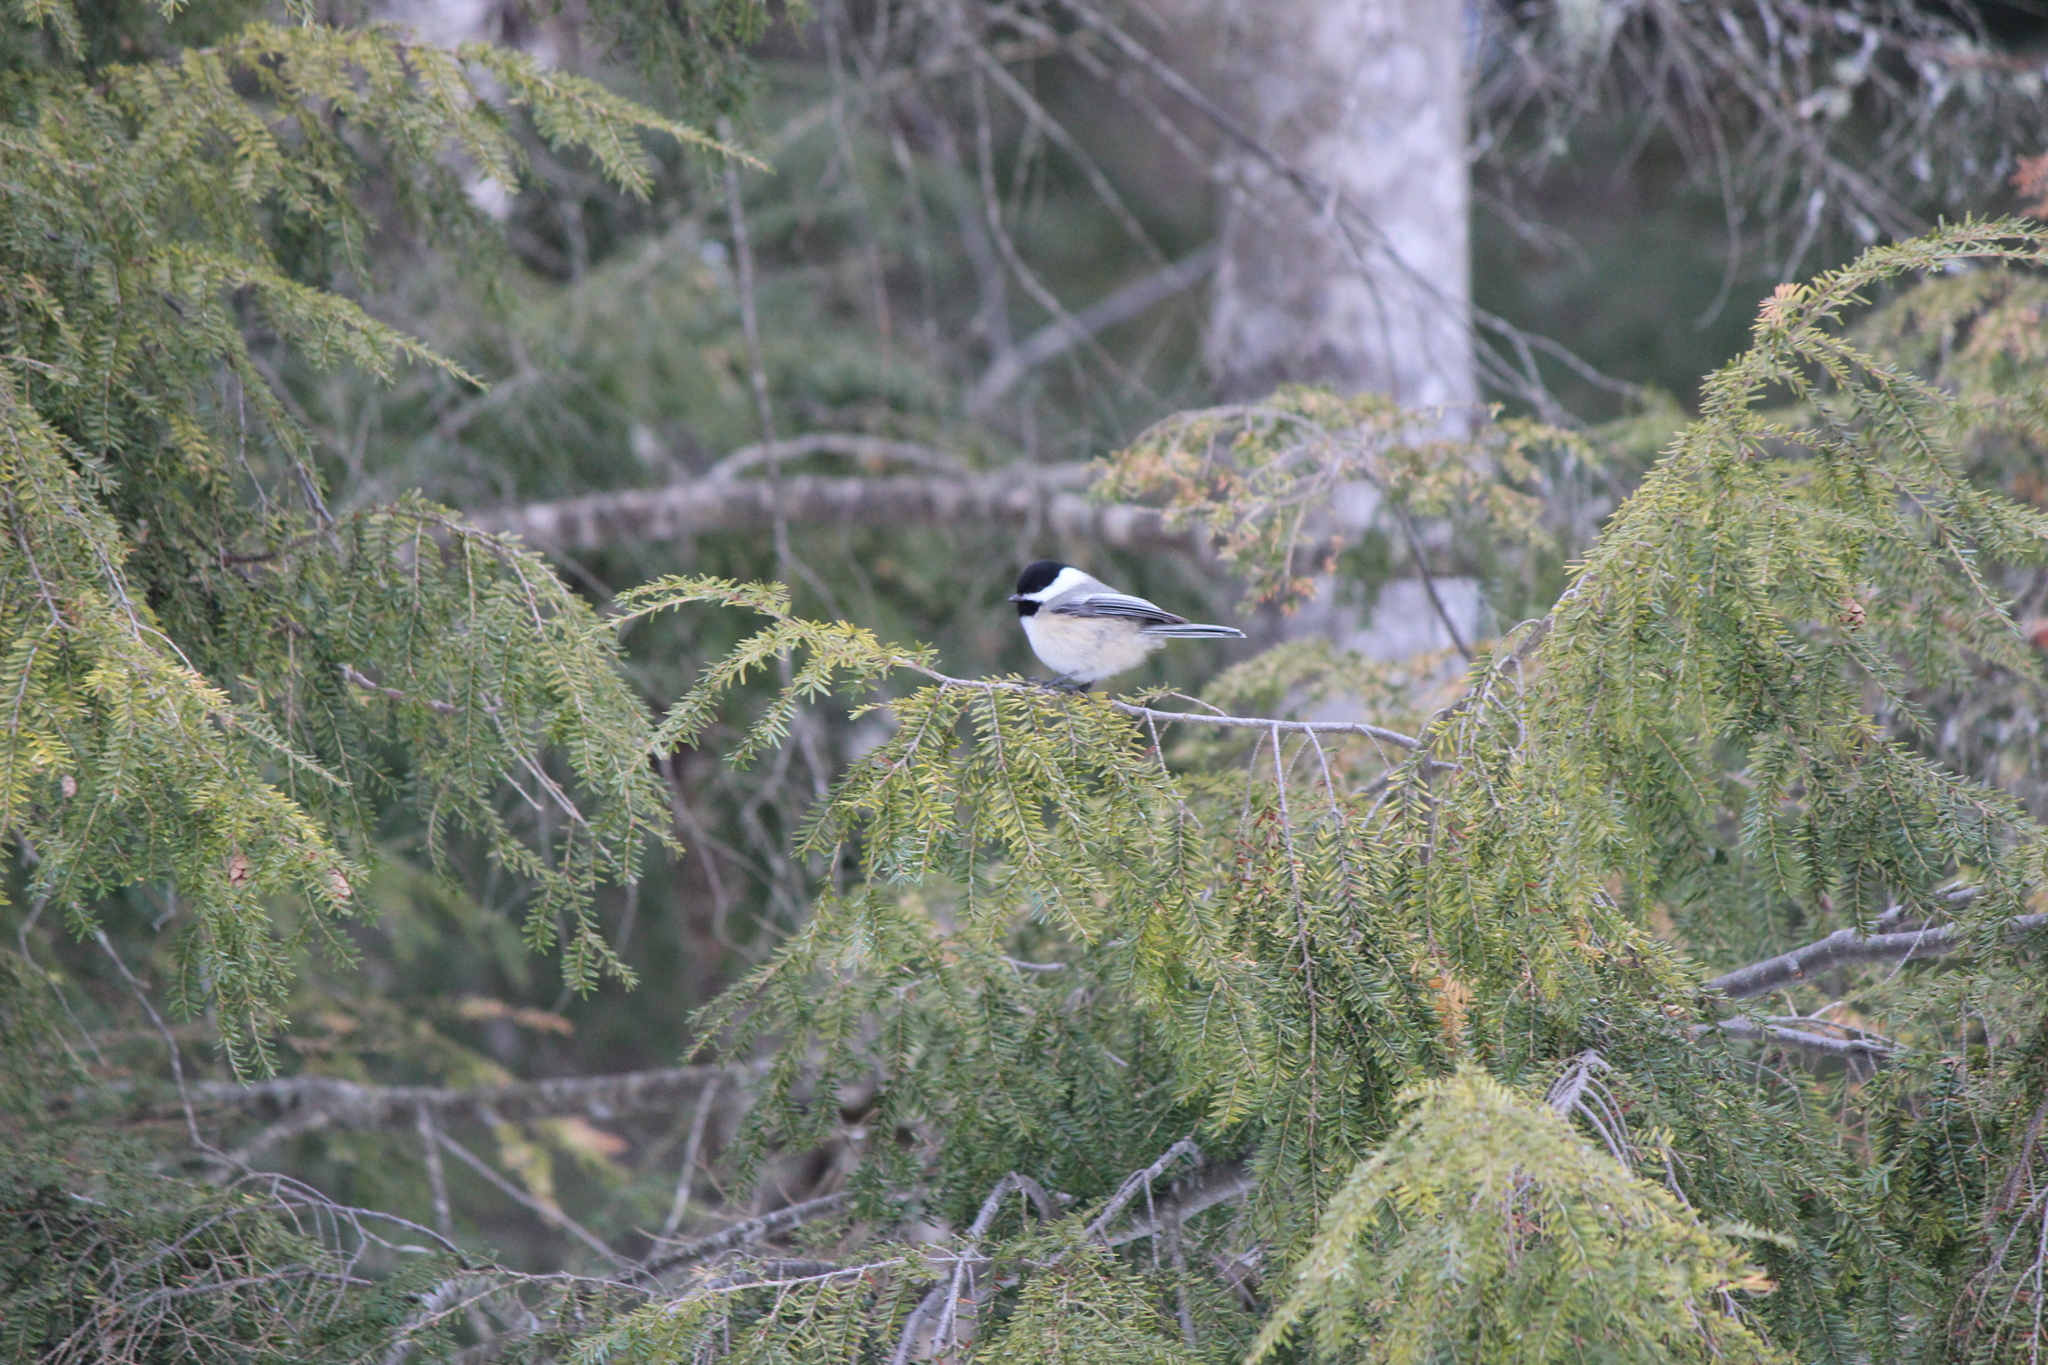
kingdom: Animalia
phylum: Chordata
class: Aves
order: Passeriformes
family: Paridae
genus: Poecile
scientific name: Poecile atricapillus
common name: Black-capped chickadee
